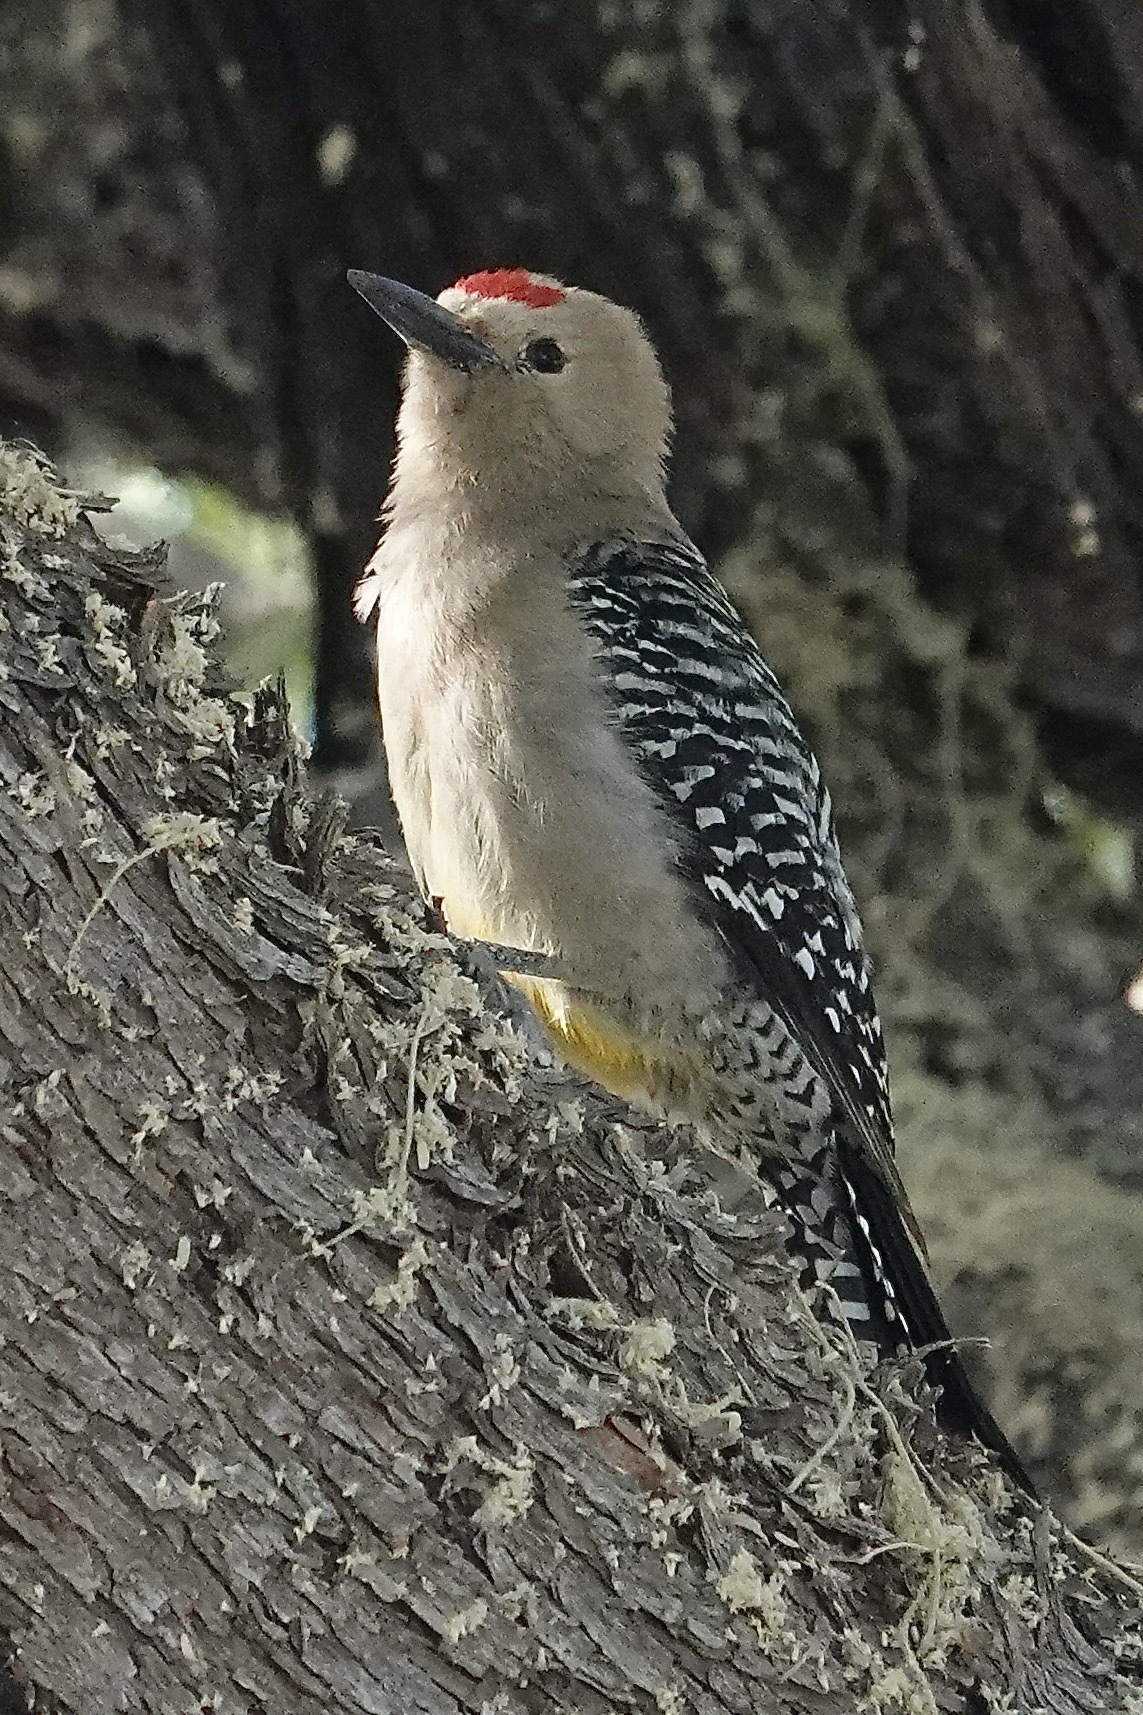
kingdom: Animalia
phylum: Chordata
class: Aves
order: Piciformes
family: Picidae
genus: Melanerpes
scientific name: Melanerpes uropygialis
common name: Gila woodpecker
